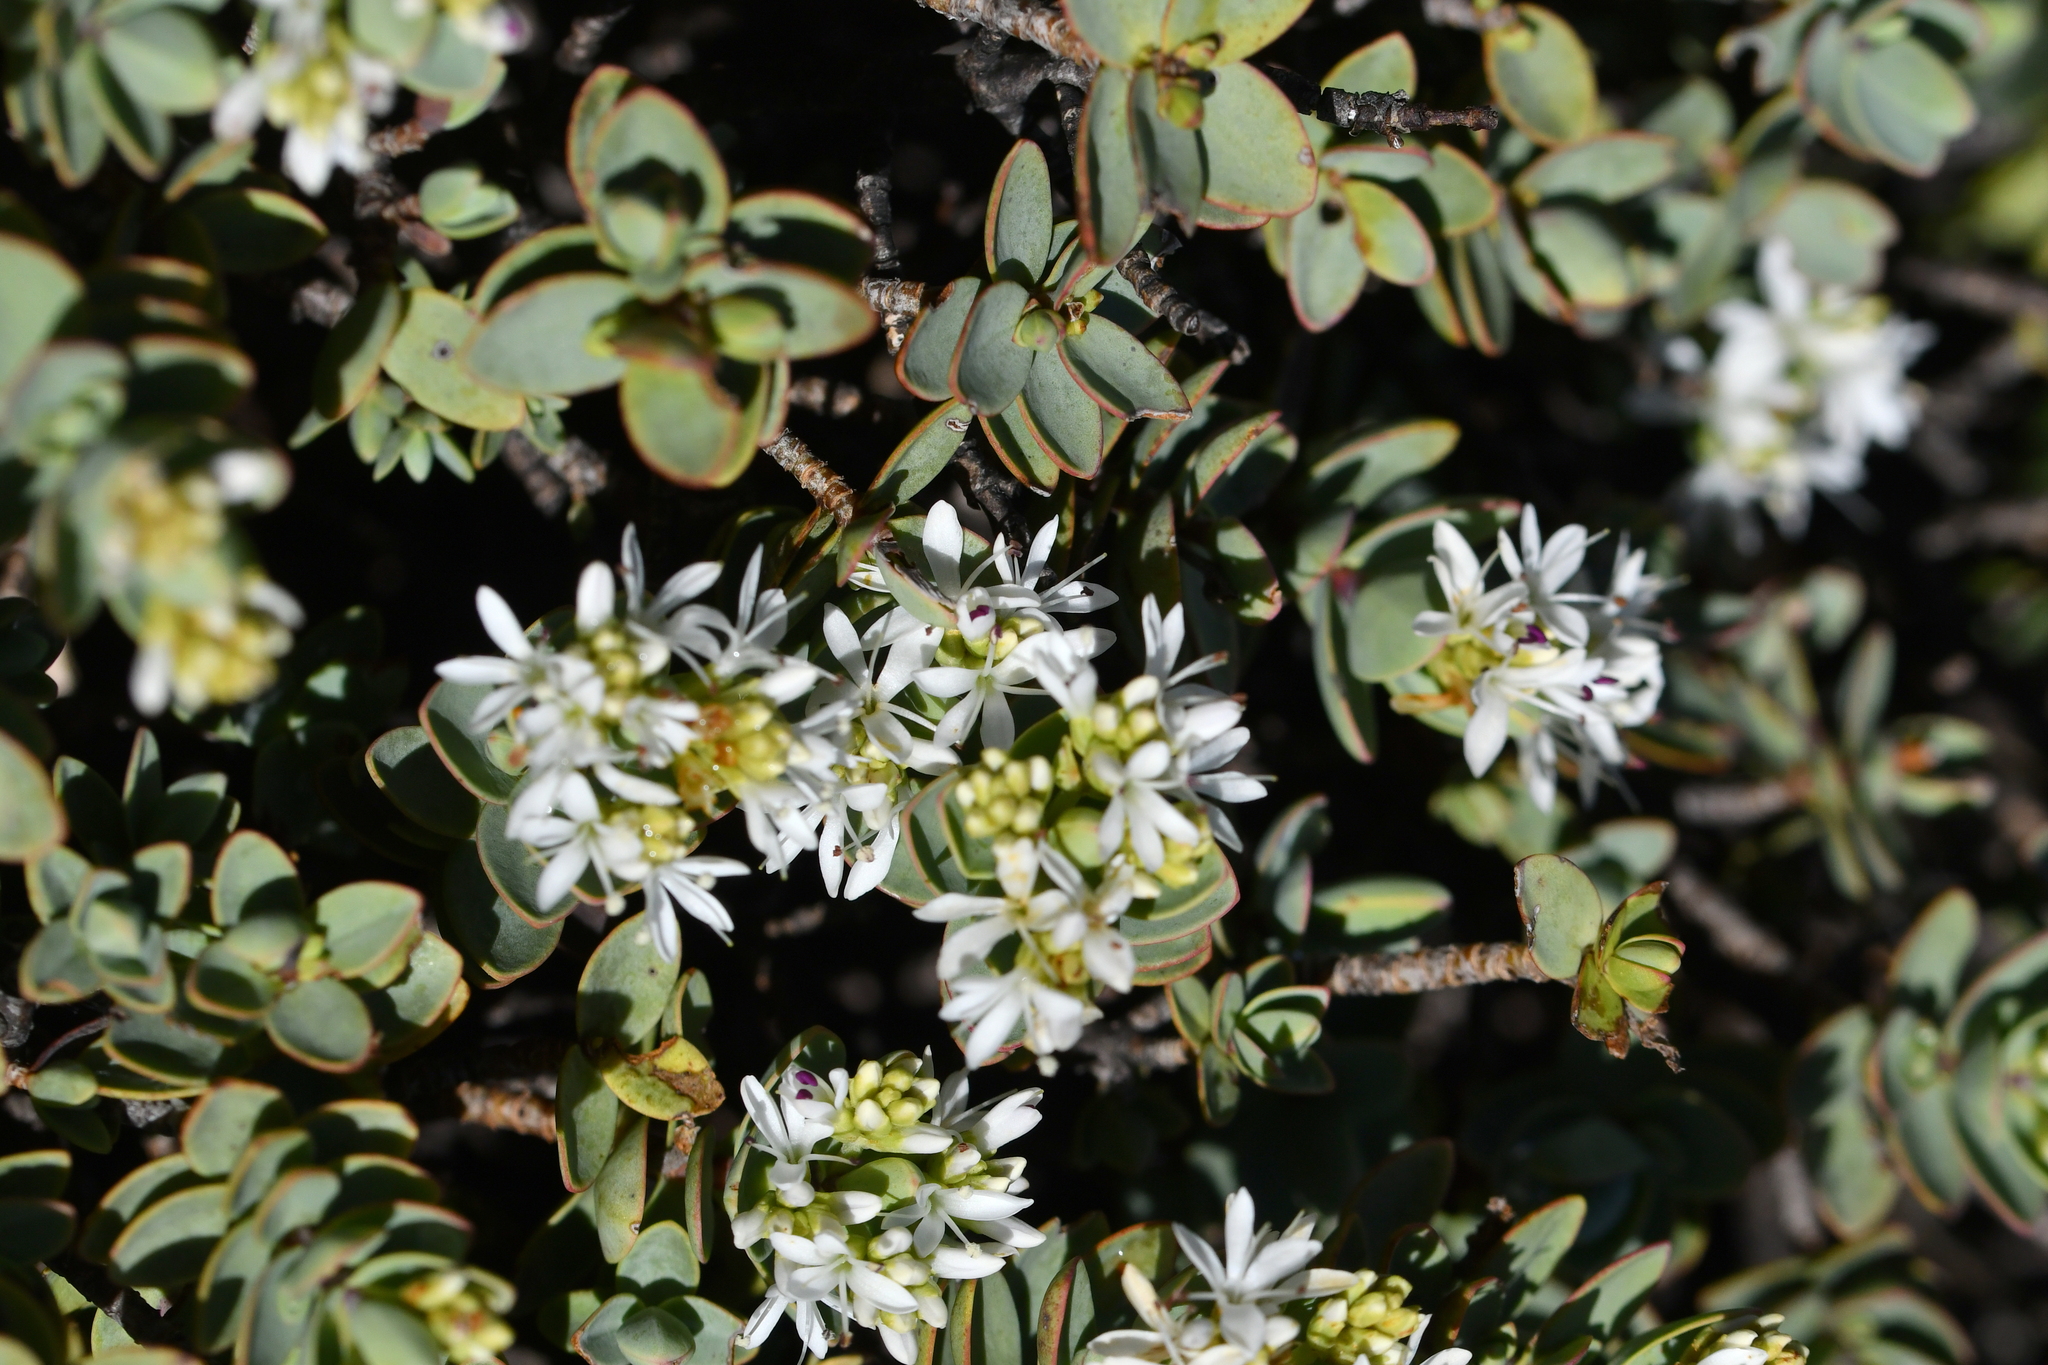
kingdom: Plantae
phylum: Tracheophyta
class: Magnoliopsida
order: Lamiales
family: Plantaginaceae
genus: Veronica
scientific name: Veronica pinguifolia
